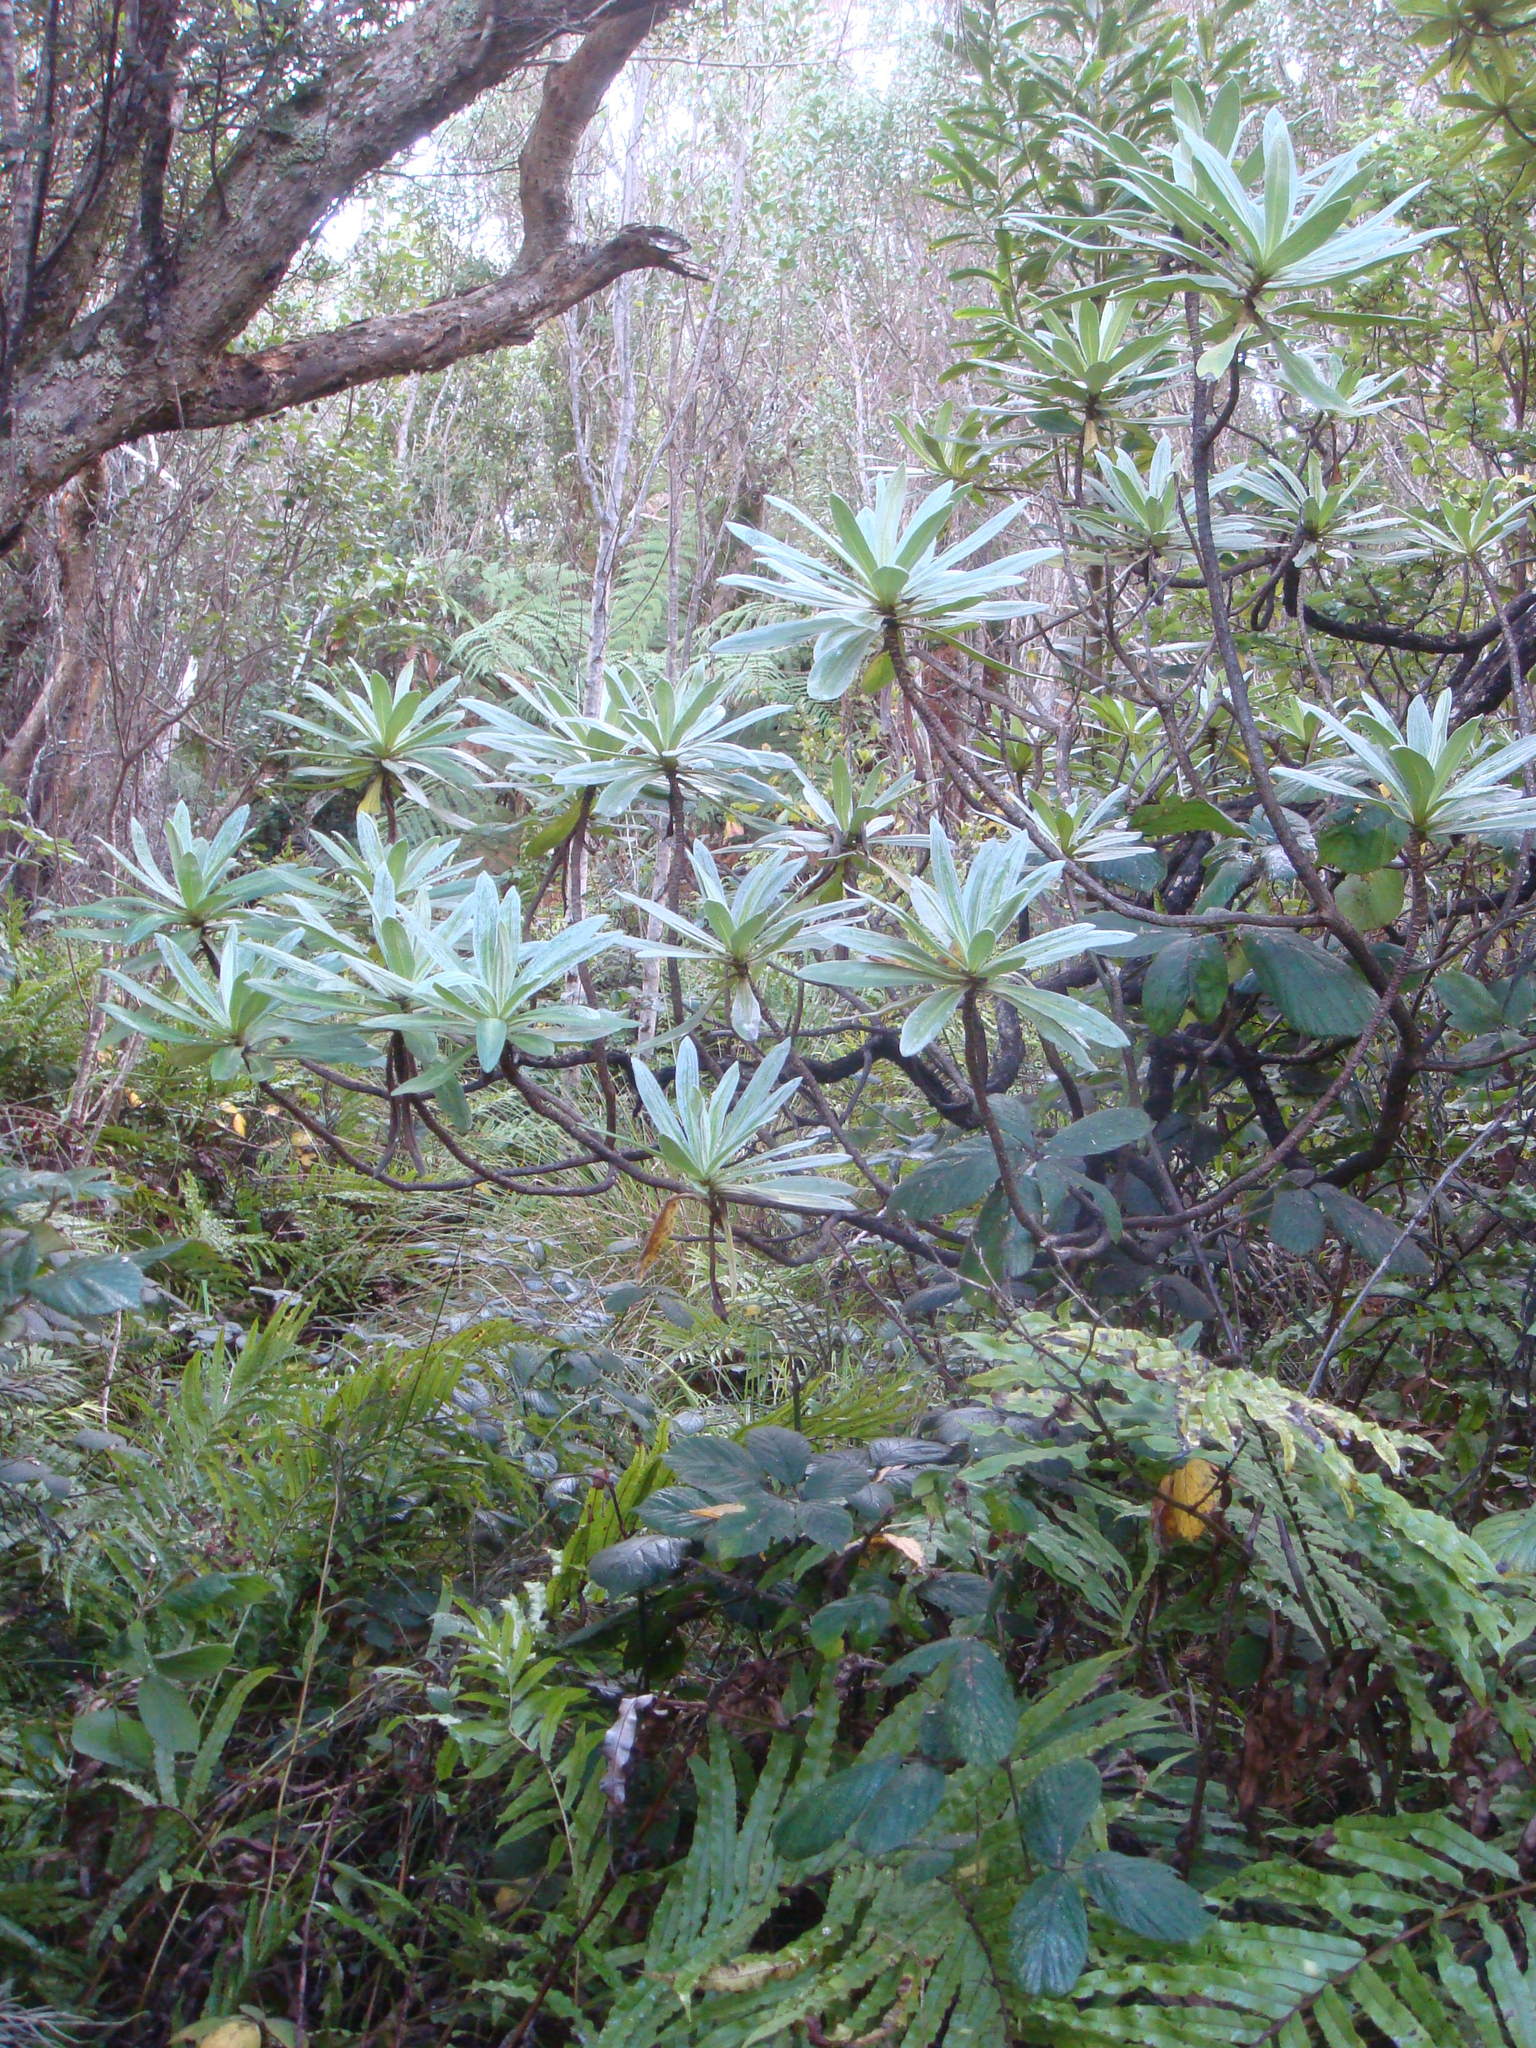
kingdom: Plantae
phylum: Tracheophyta
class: Magnoliopsida
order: Asterales
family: Asteraceae
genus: Brachyglottis
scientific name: Brachyglottis huntii
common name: Chatham island christmas tree
